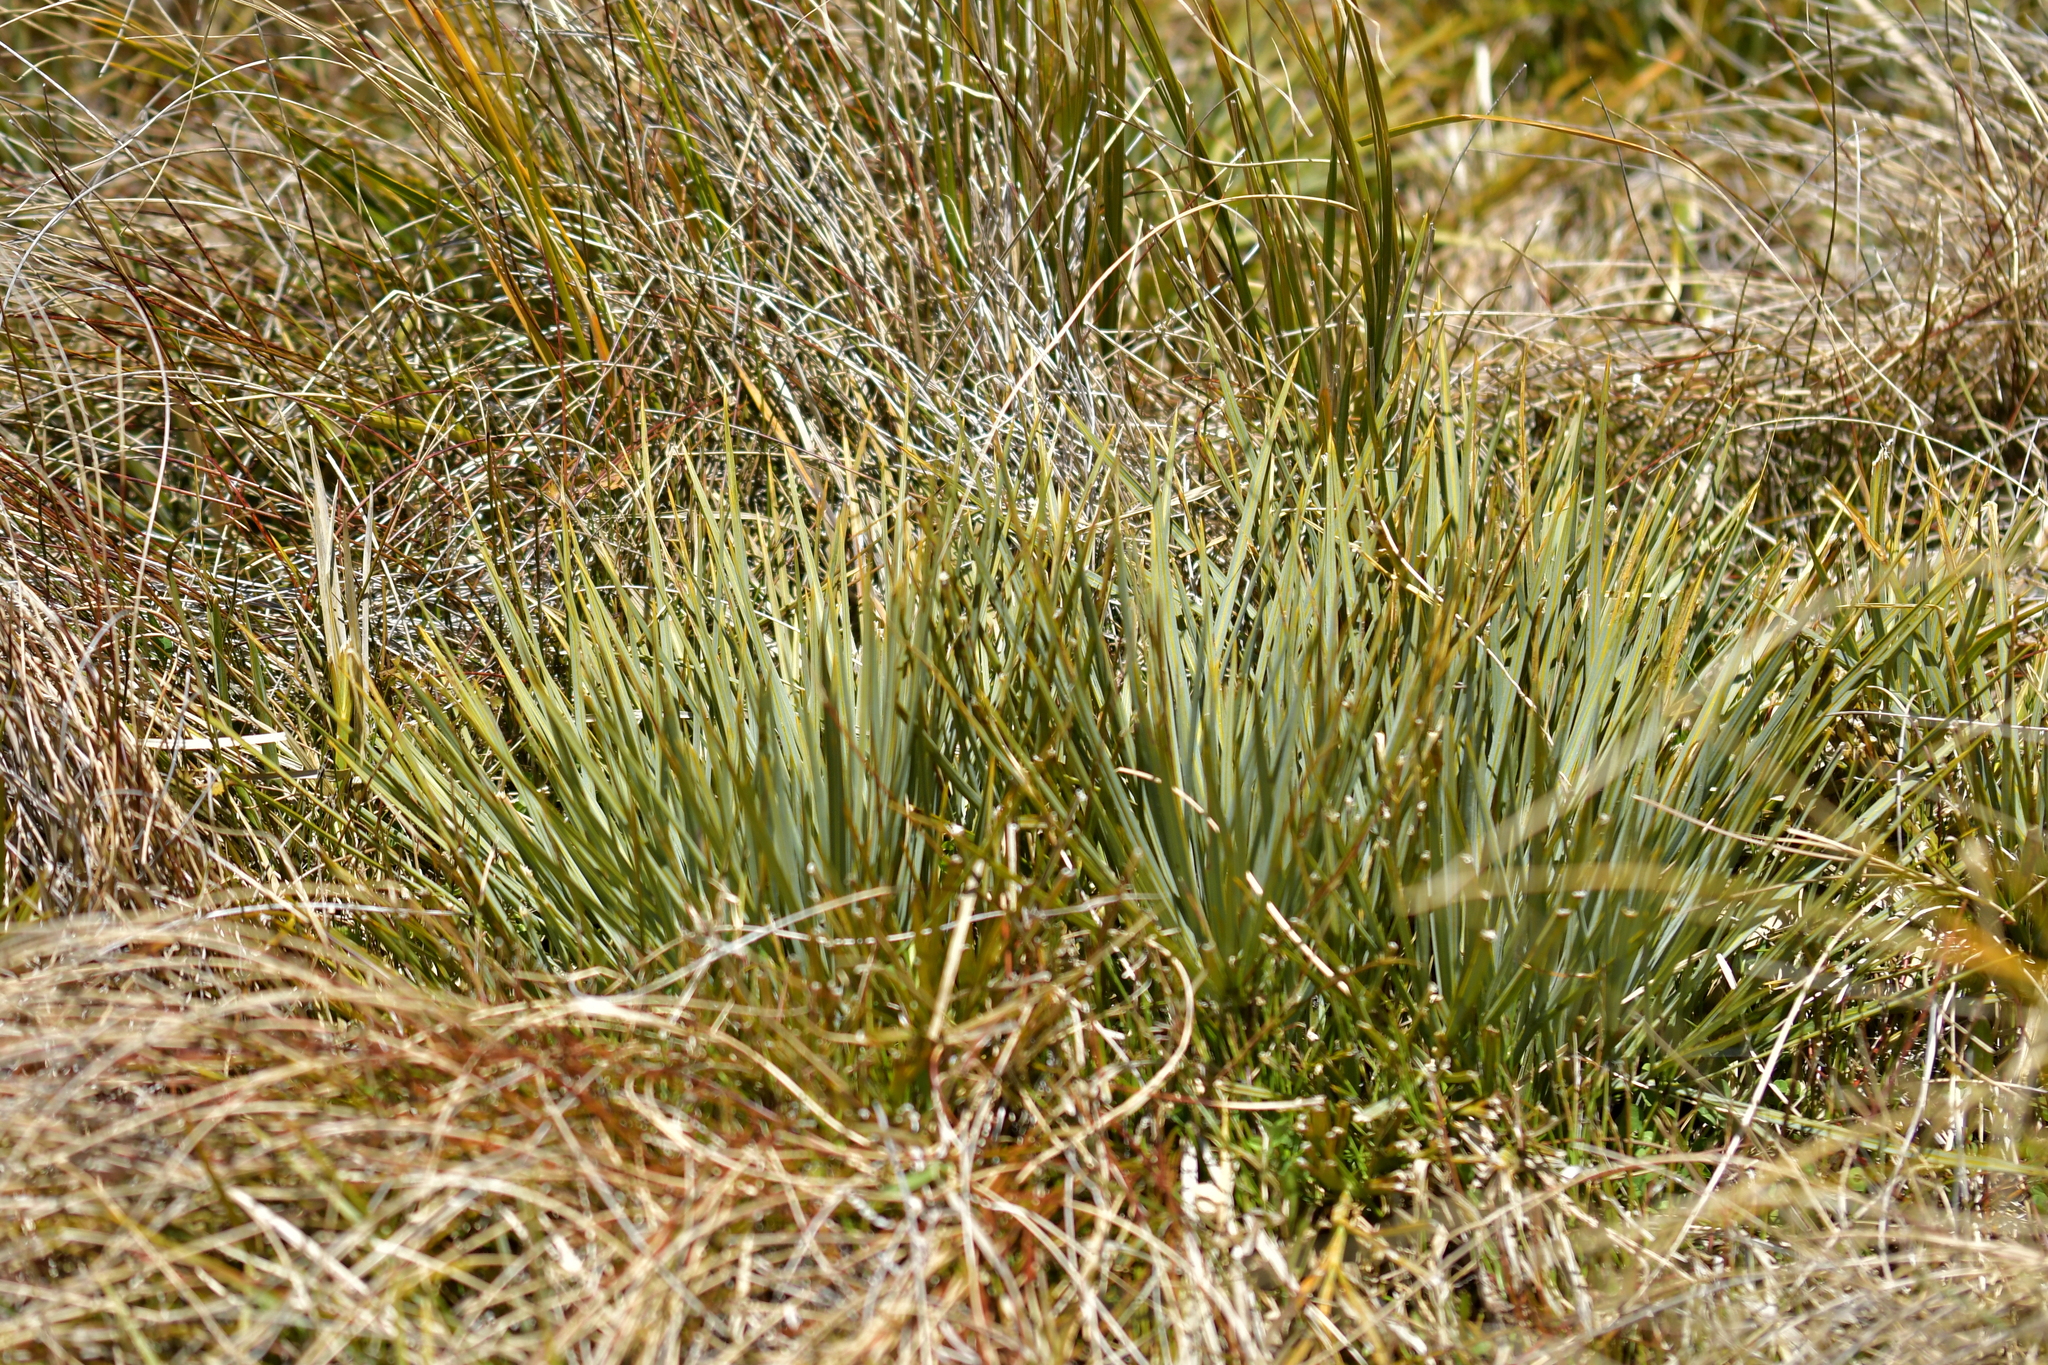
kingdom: Plantae
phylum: Tracheophyta
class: Magnoliopsida
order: Apiales
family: Apiaceae
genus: Aciphylla
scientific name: Aciphylla colensoi
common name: Colenso's spaniard
